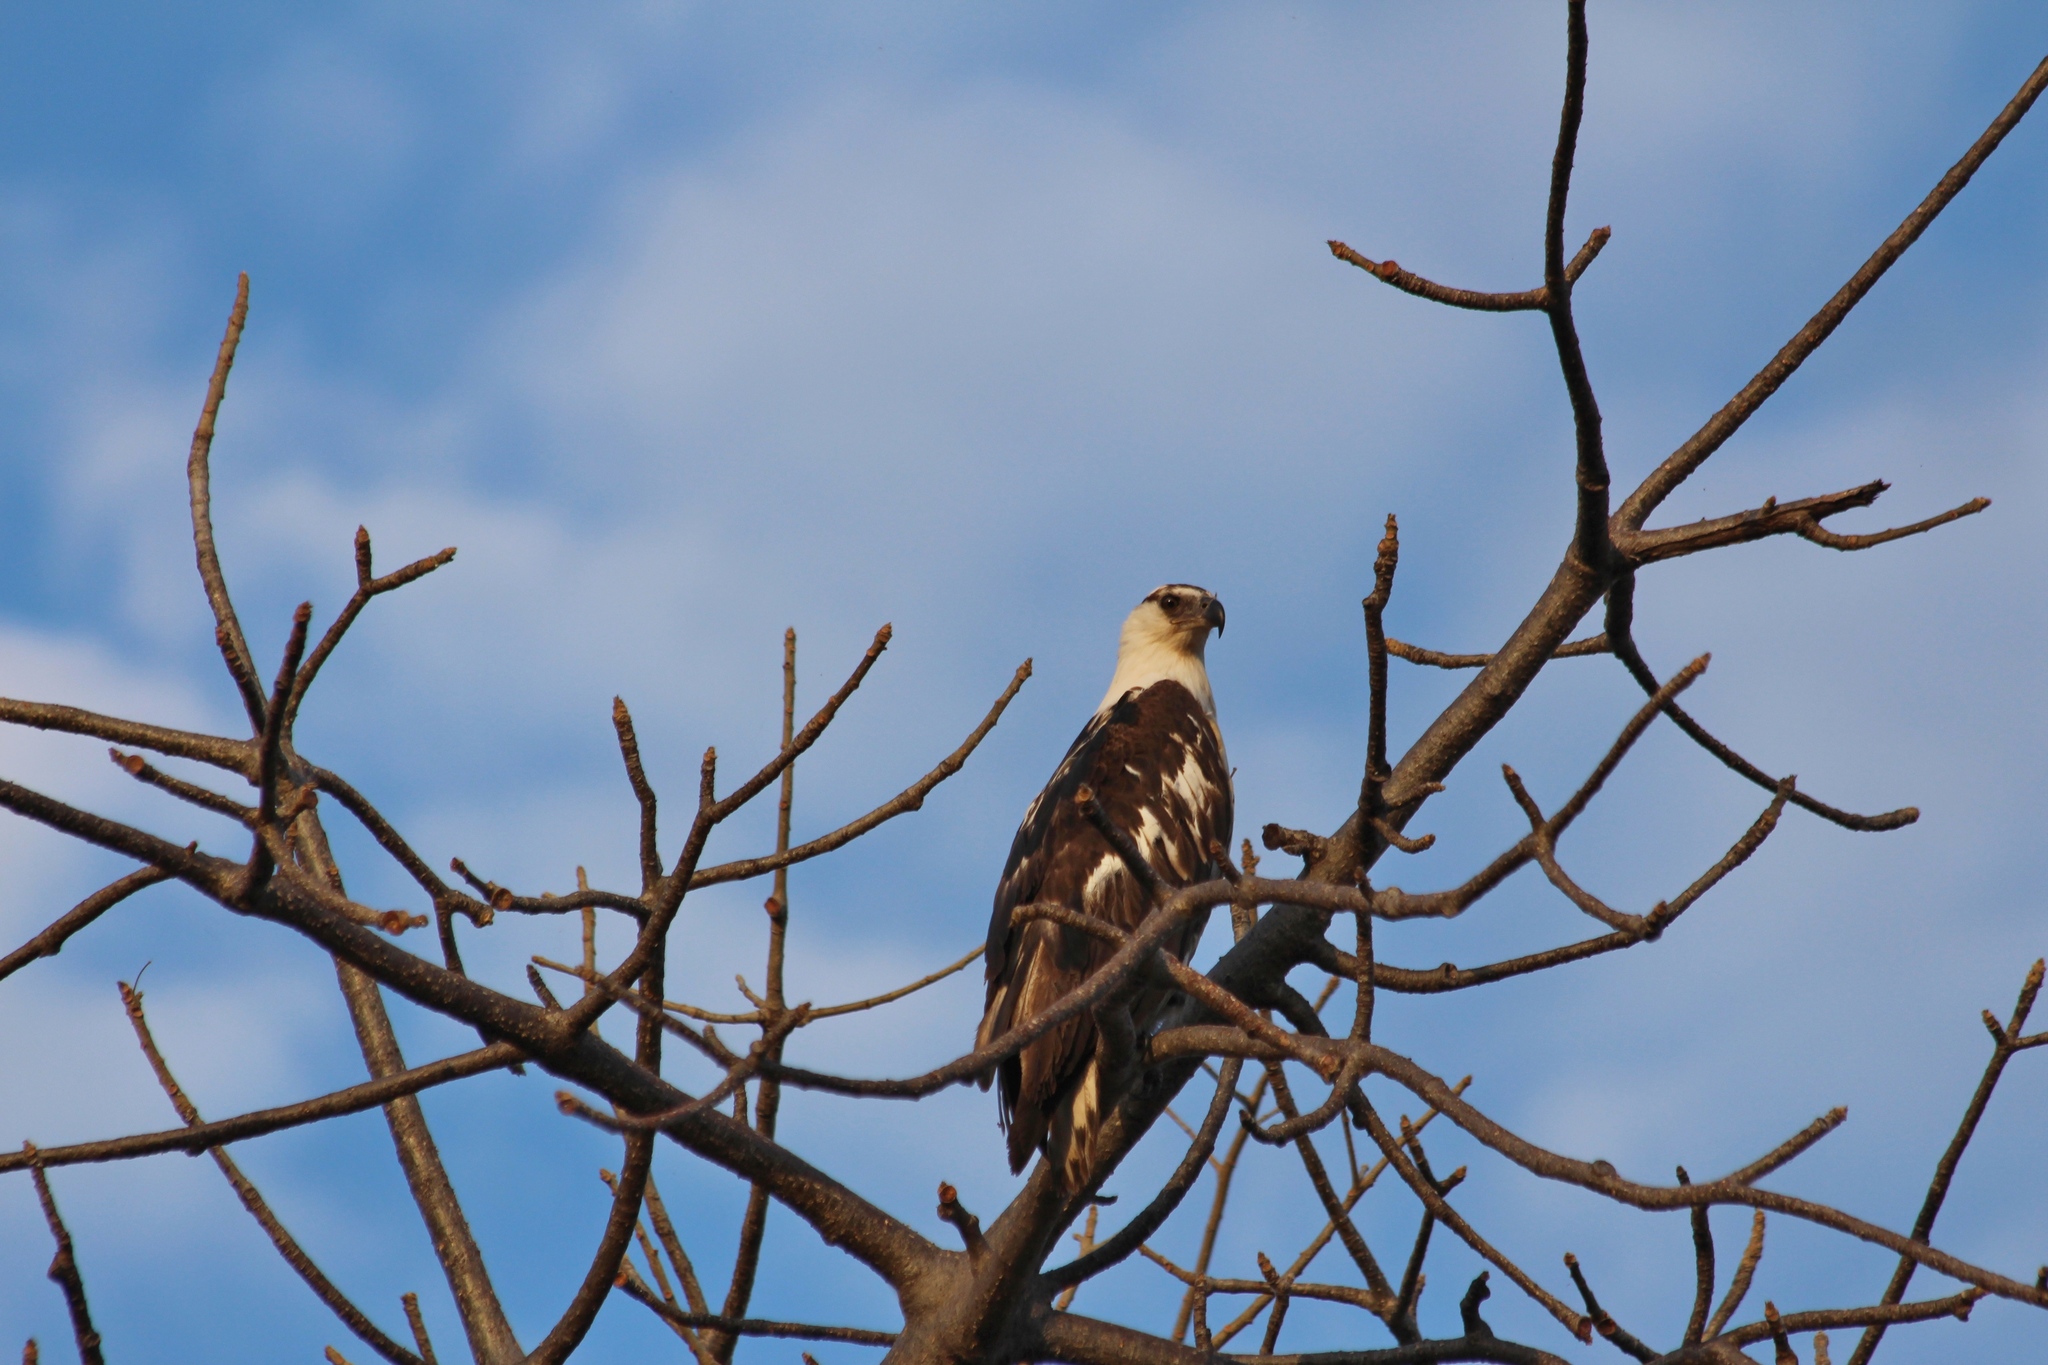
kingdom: Animalia
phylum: Chordata
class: Aves
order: Accipitriformes
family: Accipitridae
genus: Haliaeetus
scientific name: Haliaeetus vocifer
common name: African fish eagle
